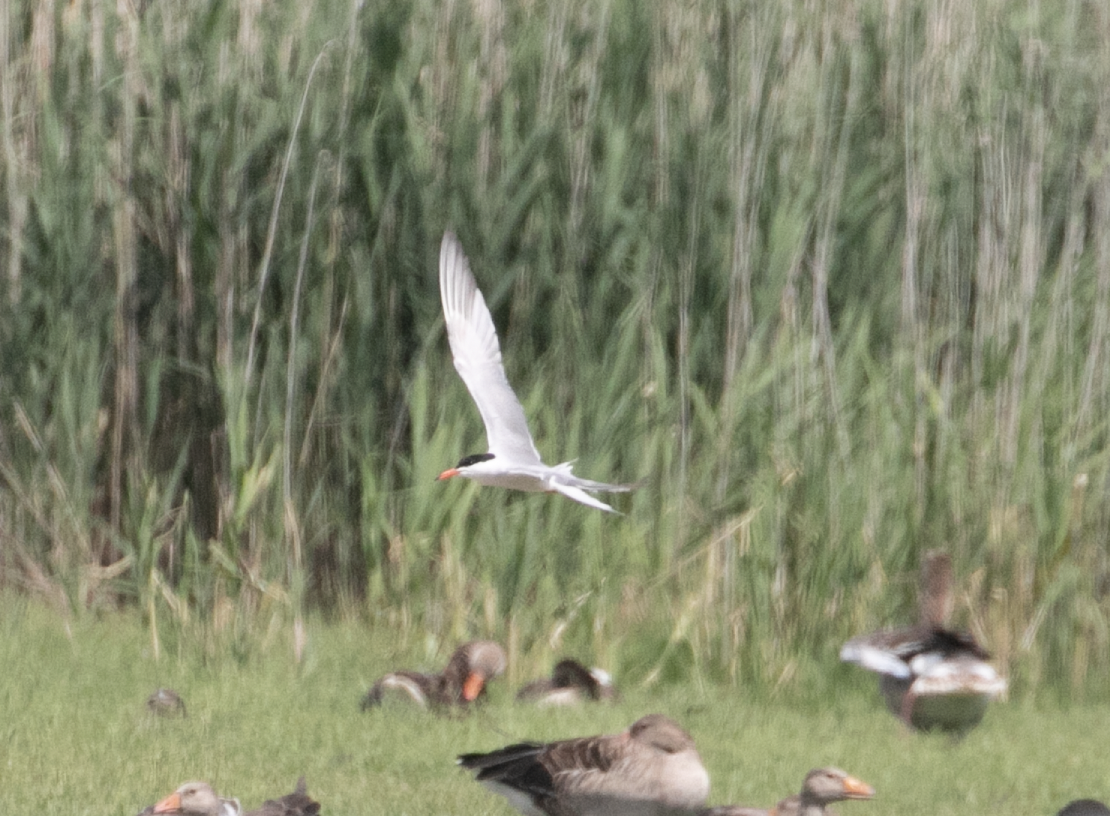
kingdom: Animalia
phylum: Chordata
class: Aves
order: Charadriiformes
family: Laridae
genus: Sterna
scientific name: Sterna hirundo
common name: Common tern
